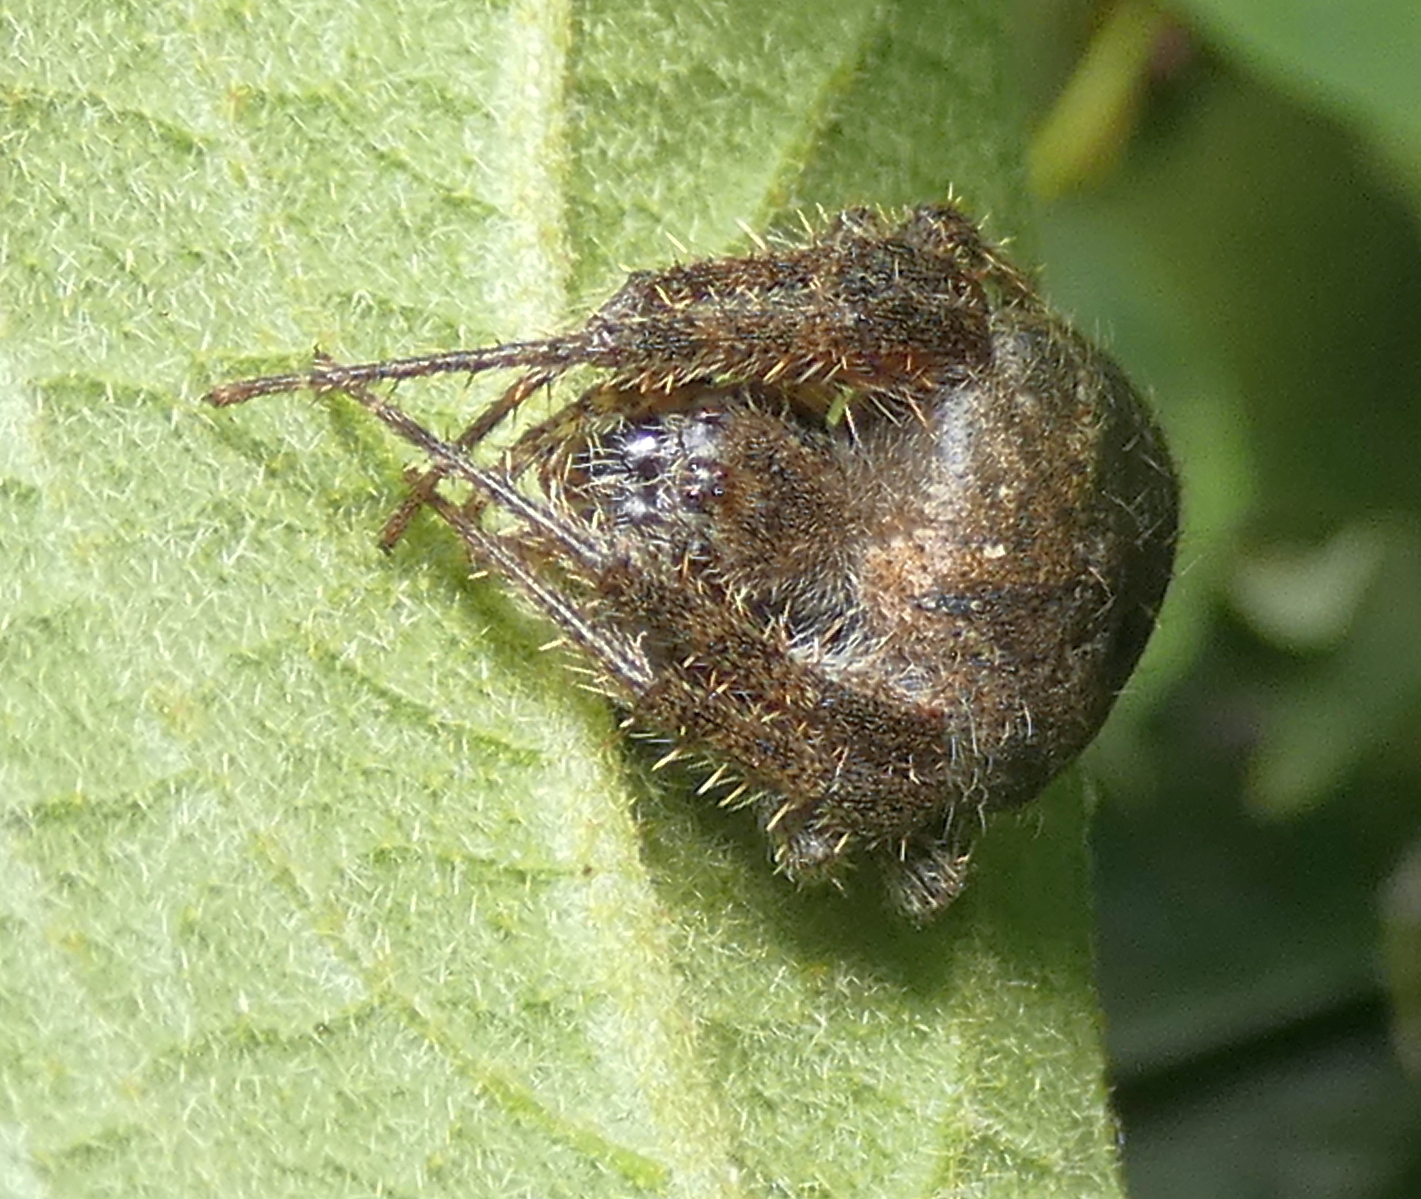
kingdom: Animalia
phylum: Arthropoda
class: Arachnida
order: Araneae
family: Araneidae
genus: Eriophora
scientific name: Eriophora edax
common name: Orb weavers
